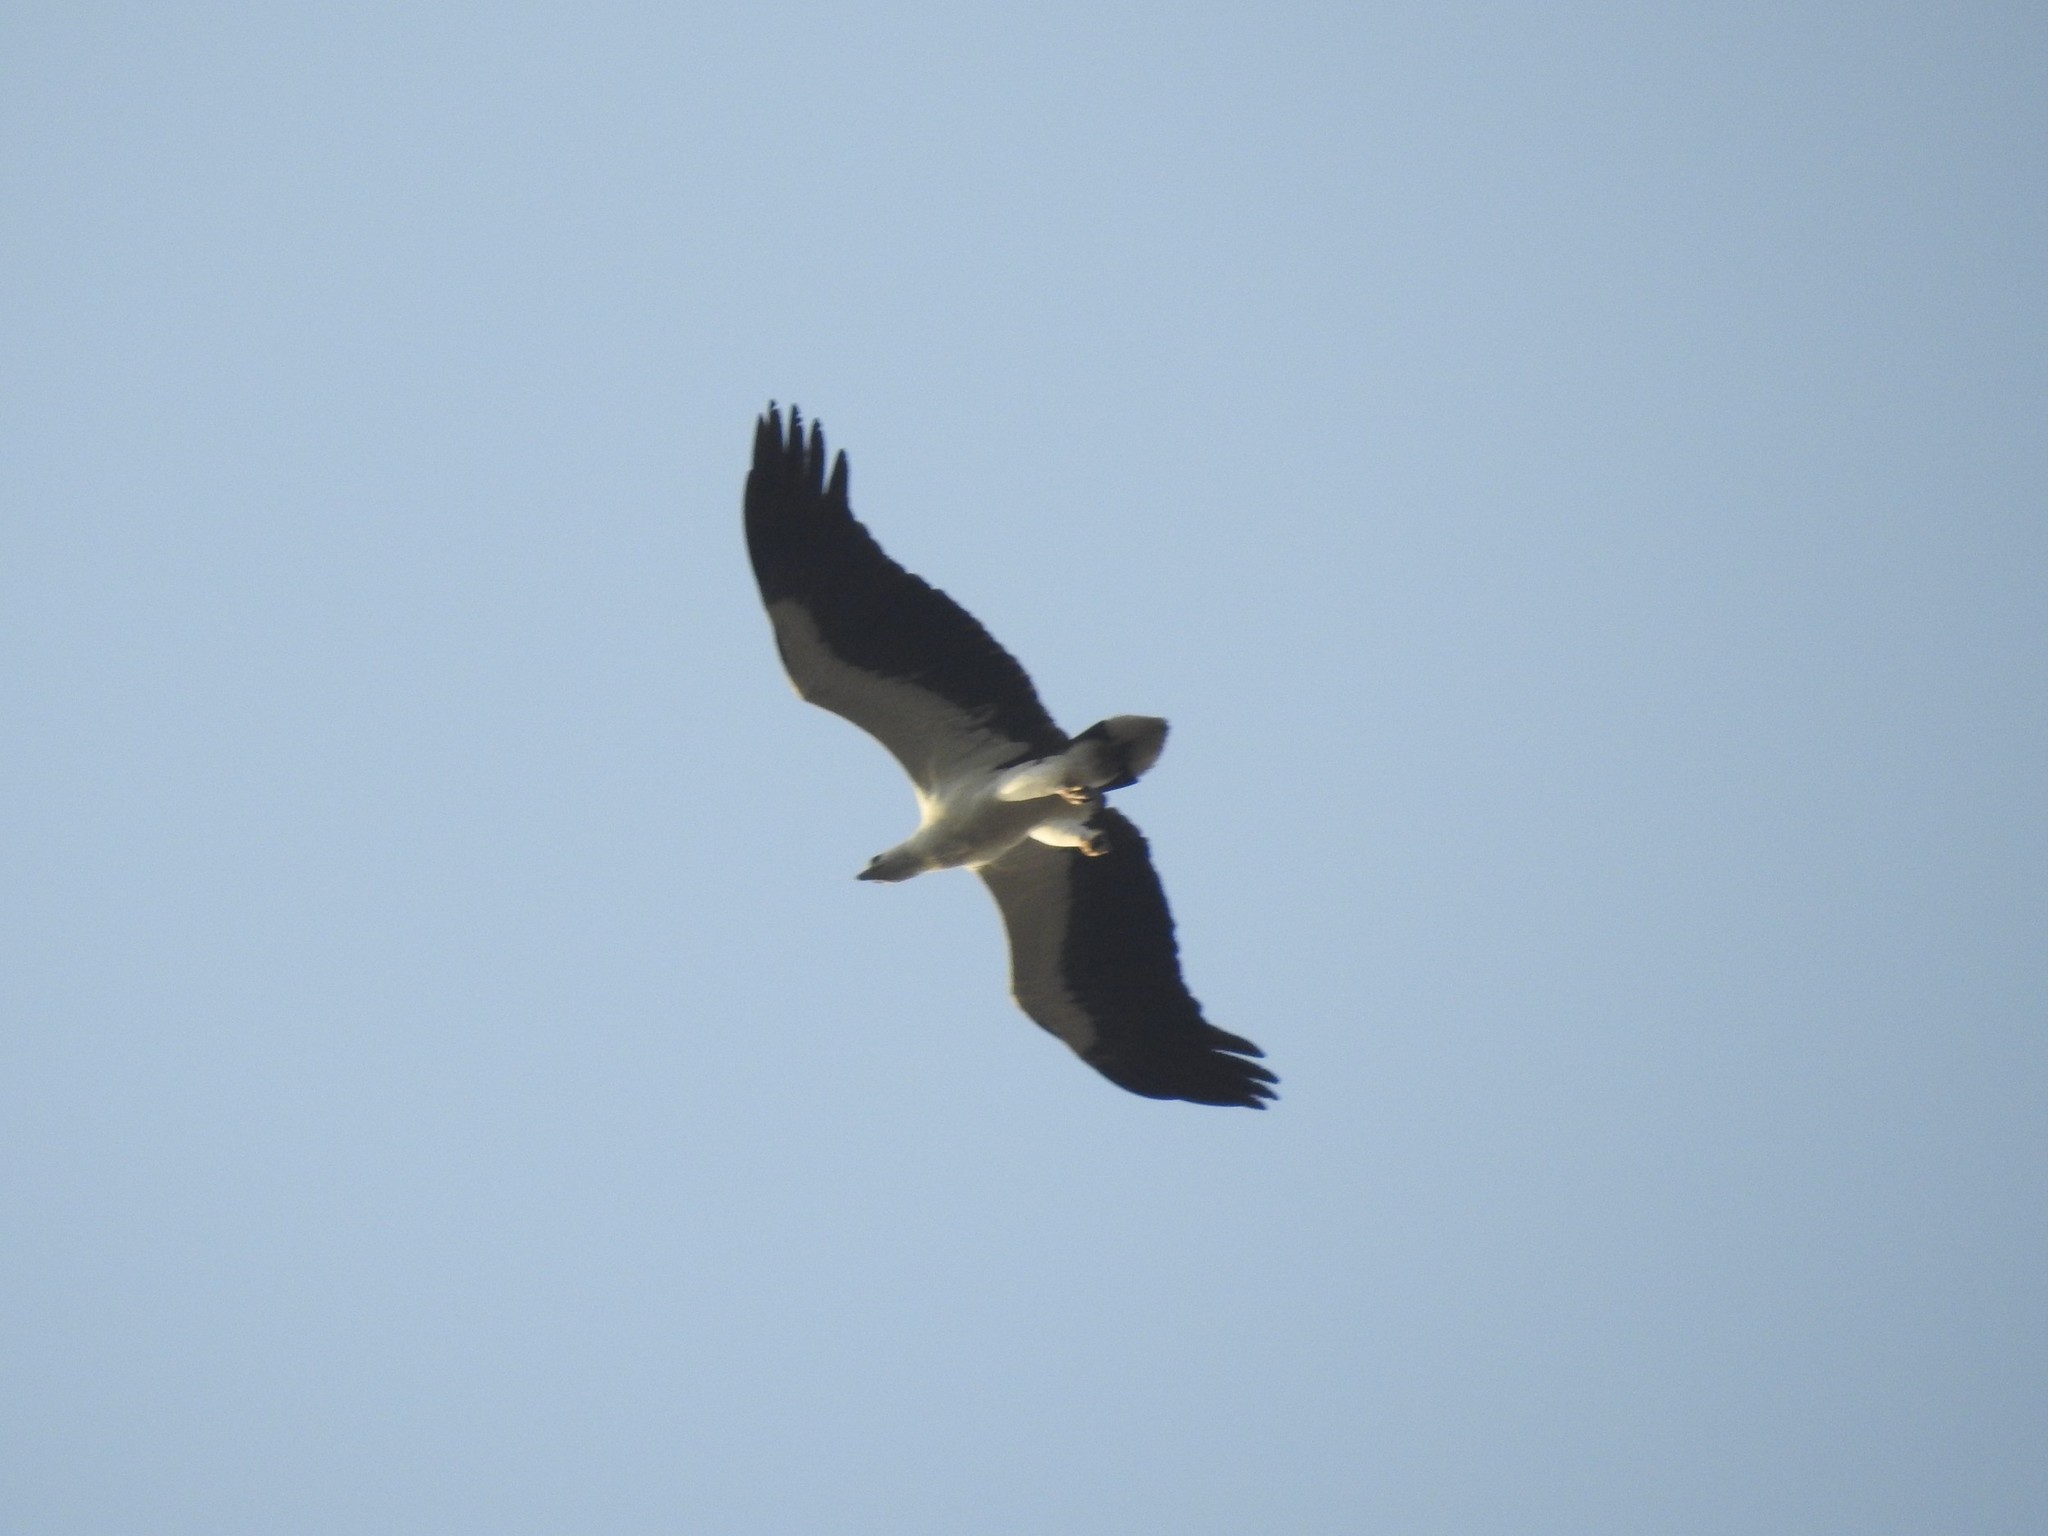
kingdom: Animalia
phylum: Chordata
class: Aves
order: Accipitriformes
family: Accipitridae
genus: Haliaeetus
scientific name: Haliaeetus leucogaster
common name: White-bellied sea eagle
